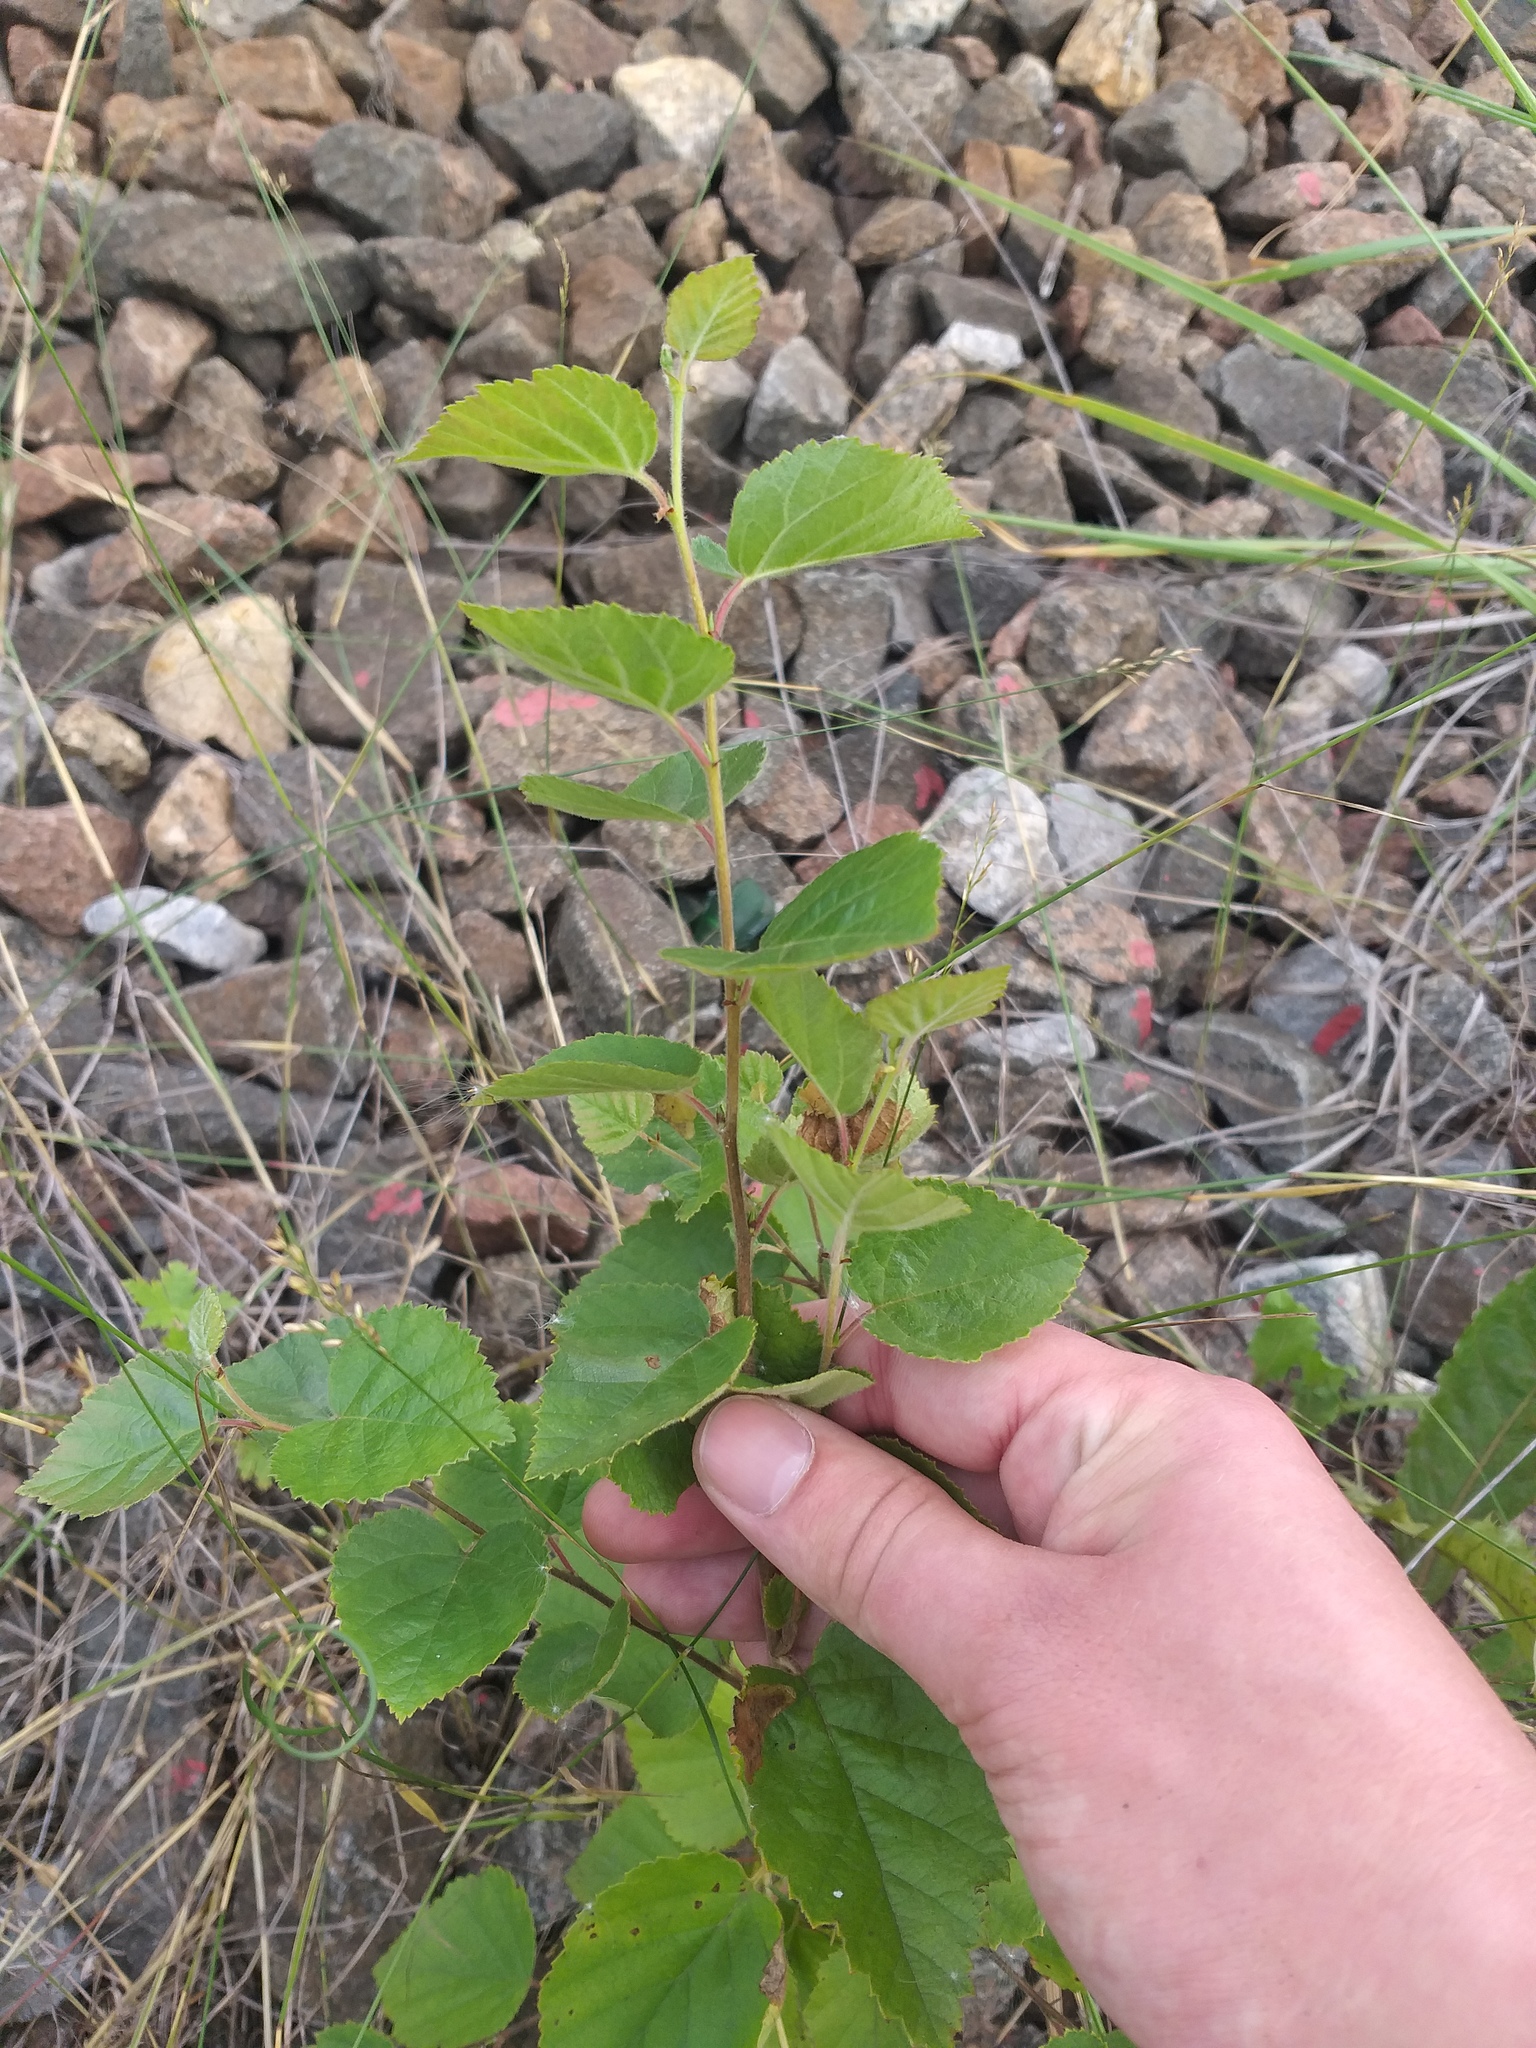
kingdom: Plantae
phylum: Tracheophyta
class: Magnoliopsida
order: Fagales
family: Betulaceae
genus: Betula
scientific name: Betula pubescens
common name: Downy birch
